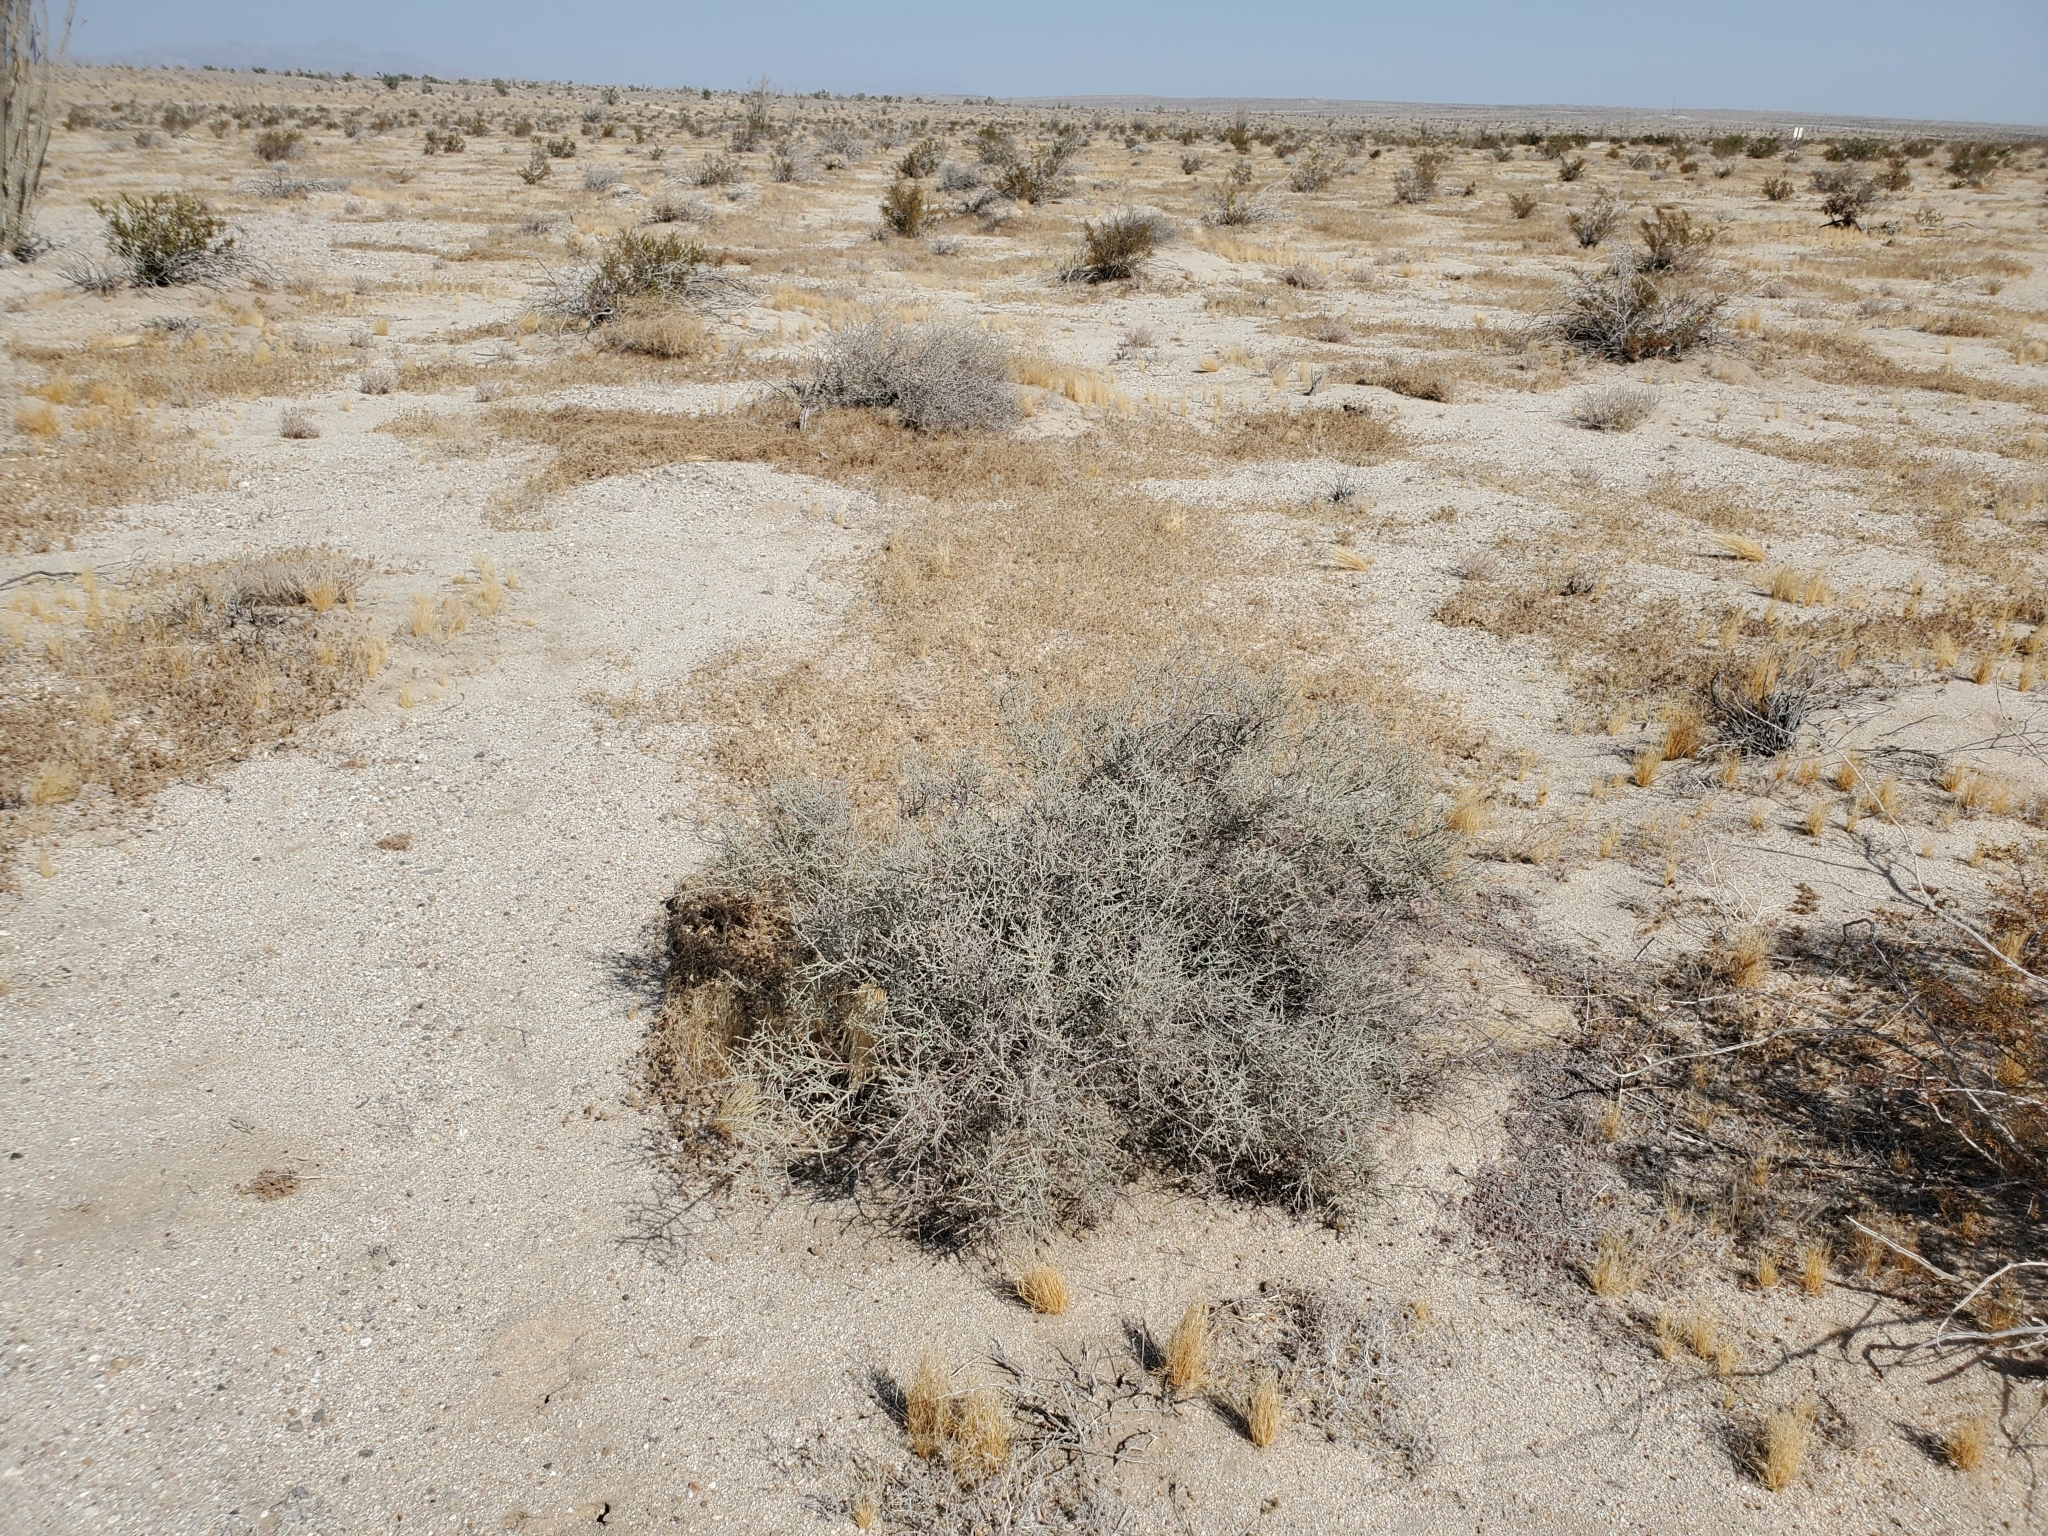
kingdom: Plantae
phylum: Tracheophyta
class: Magnoliopsida
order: Zygophyllales
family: Krameriaceae
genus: Krameria
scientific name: Krameria bicolor
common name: White ratany
